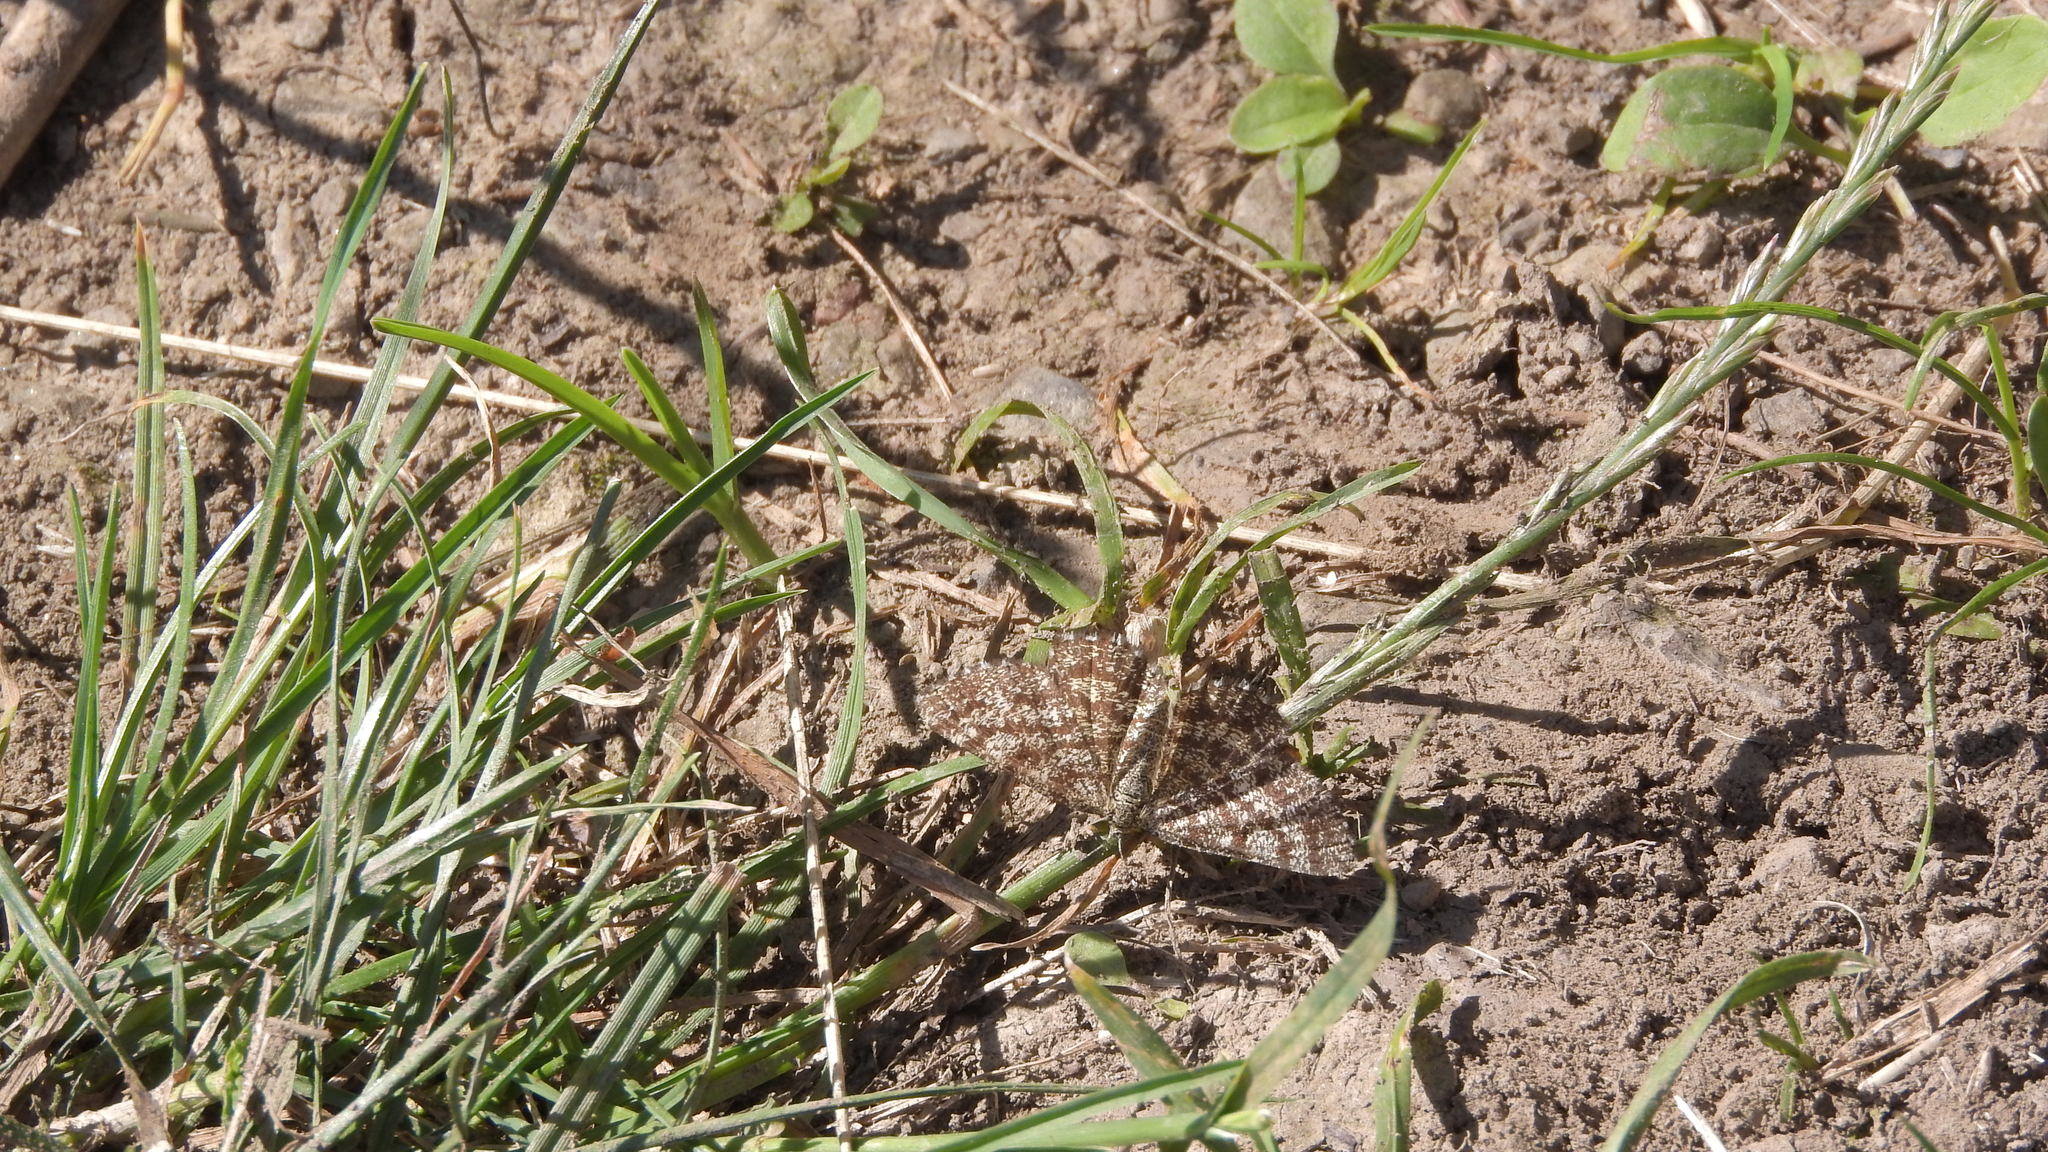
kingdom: Animalia
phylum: Arthropoda
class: Insecta
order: Lepidoptera
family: Geometridae
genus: Ematurga
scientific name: Ematurga atomaria
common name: Common heath
